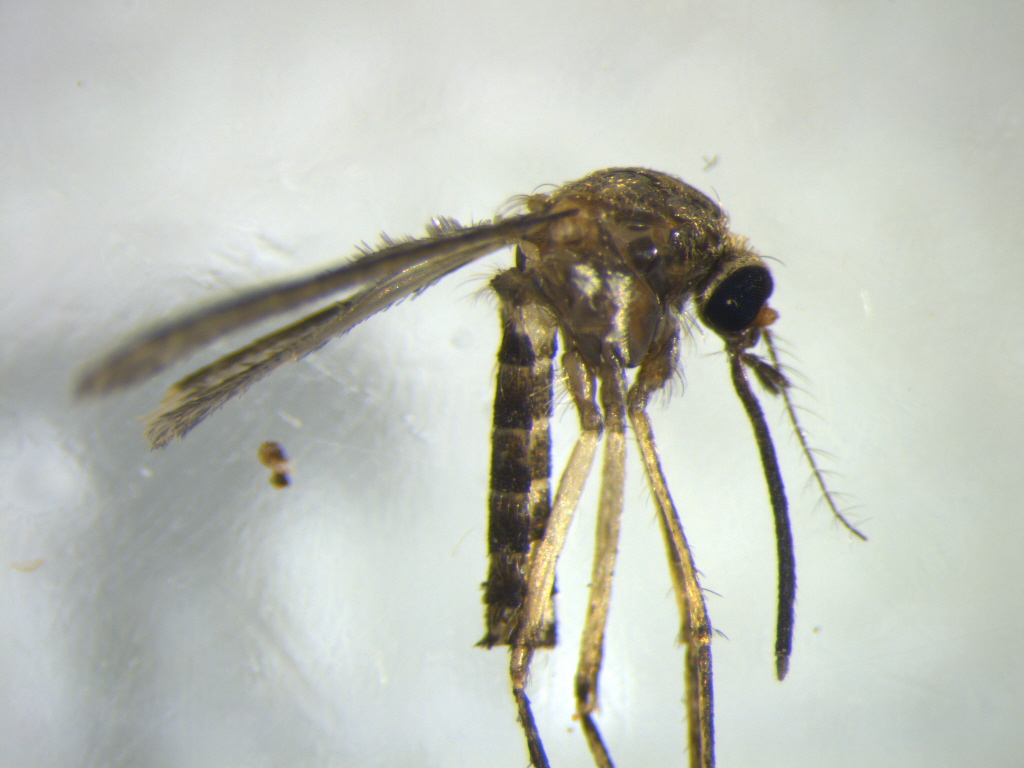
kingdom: Animalia
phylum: Arthropoda
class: Insecta
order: Diptera
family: Culicidae
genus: Coquillettidia
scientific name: Coquillettidia iracunda
